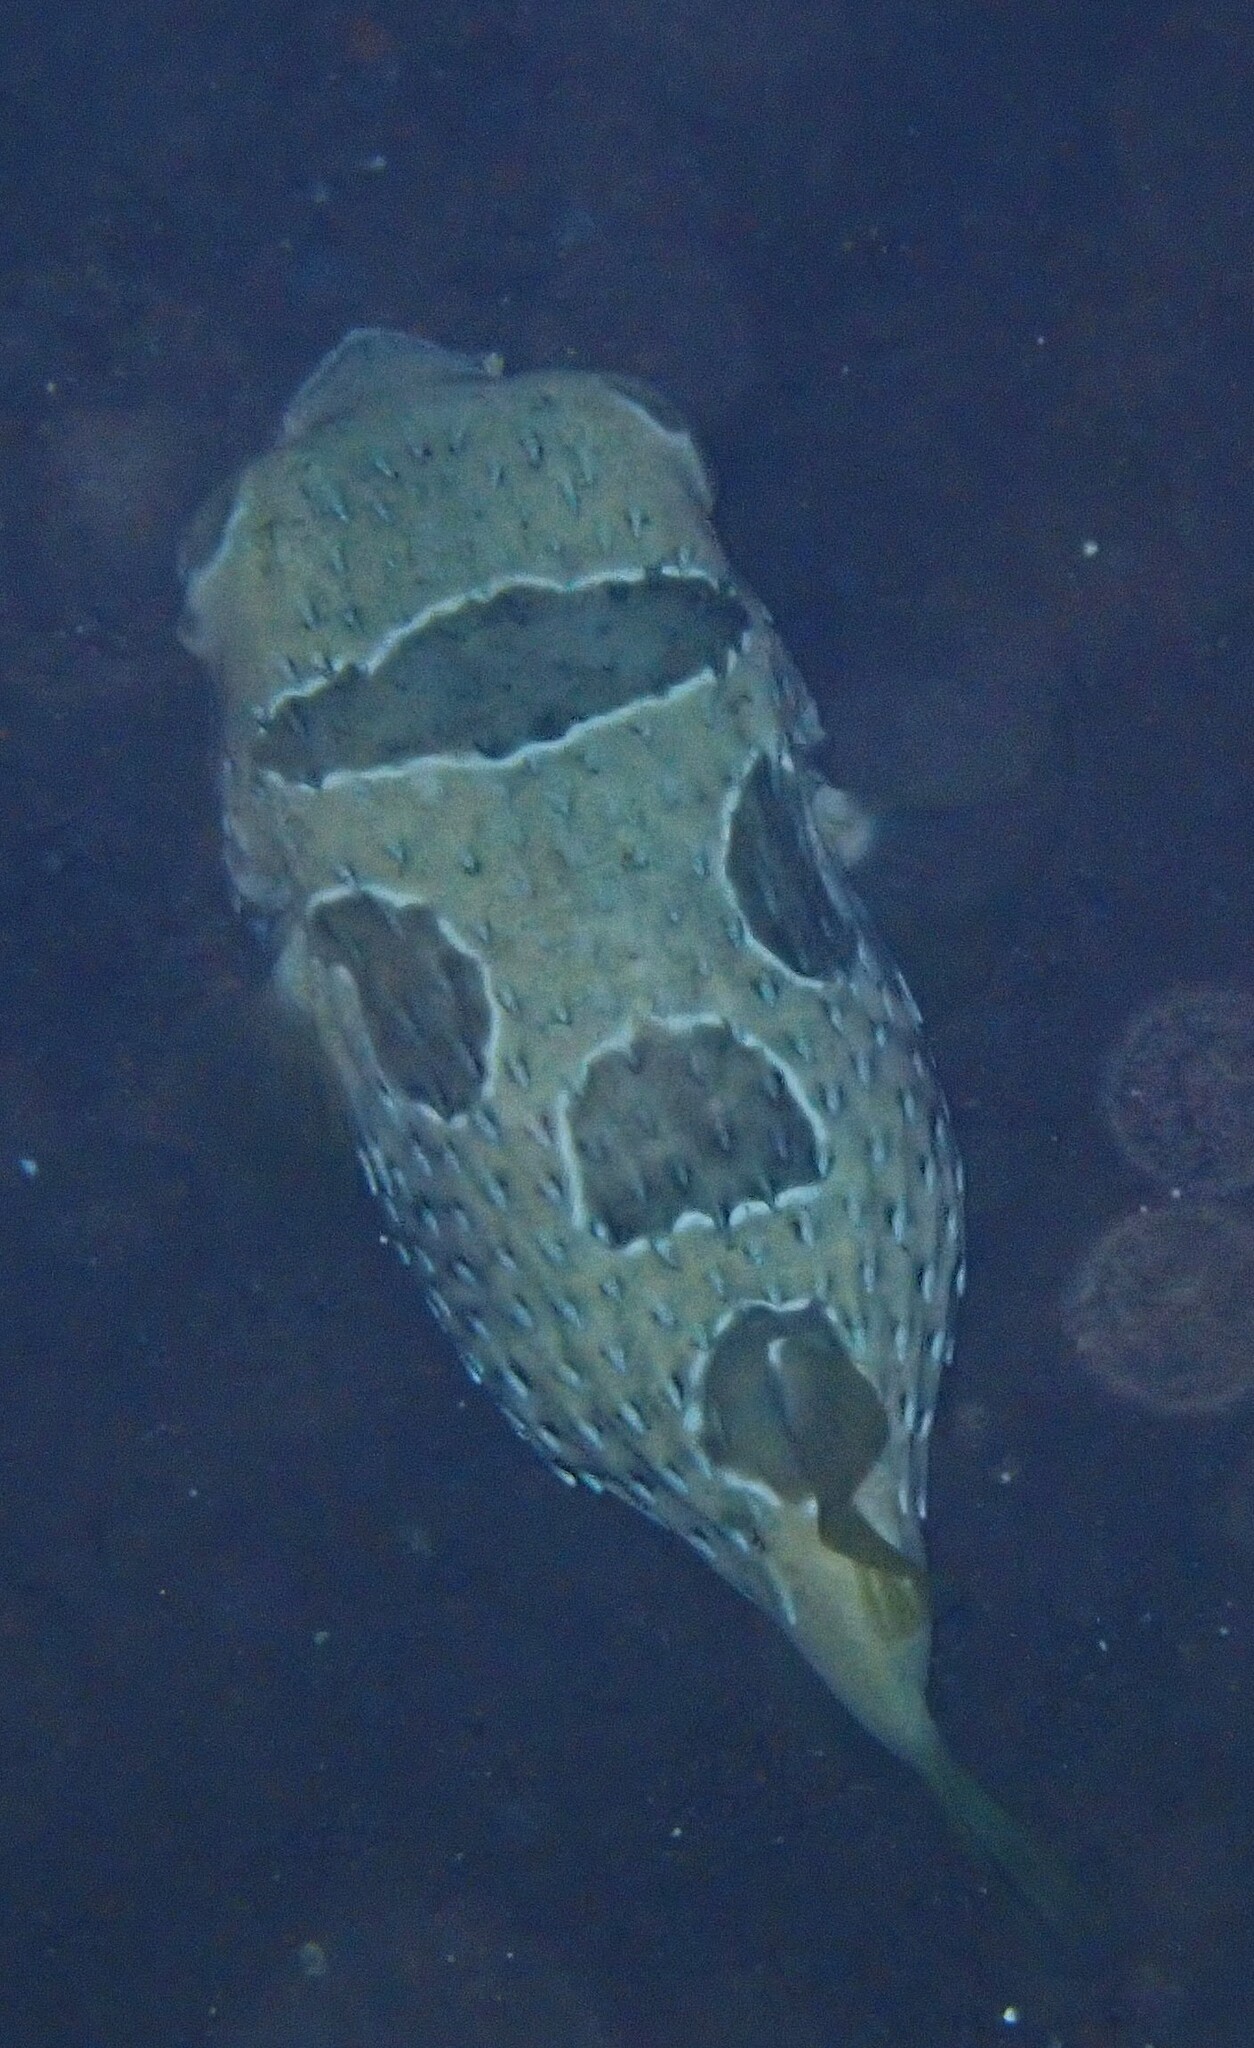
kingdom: Animalia
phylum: Chordata
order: Tetraodontiformes
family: Diodontidae
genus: Diodon
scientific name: Diodon liturosus
